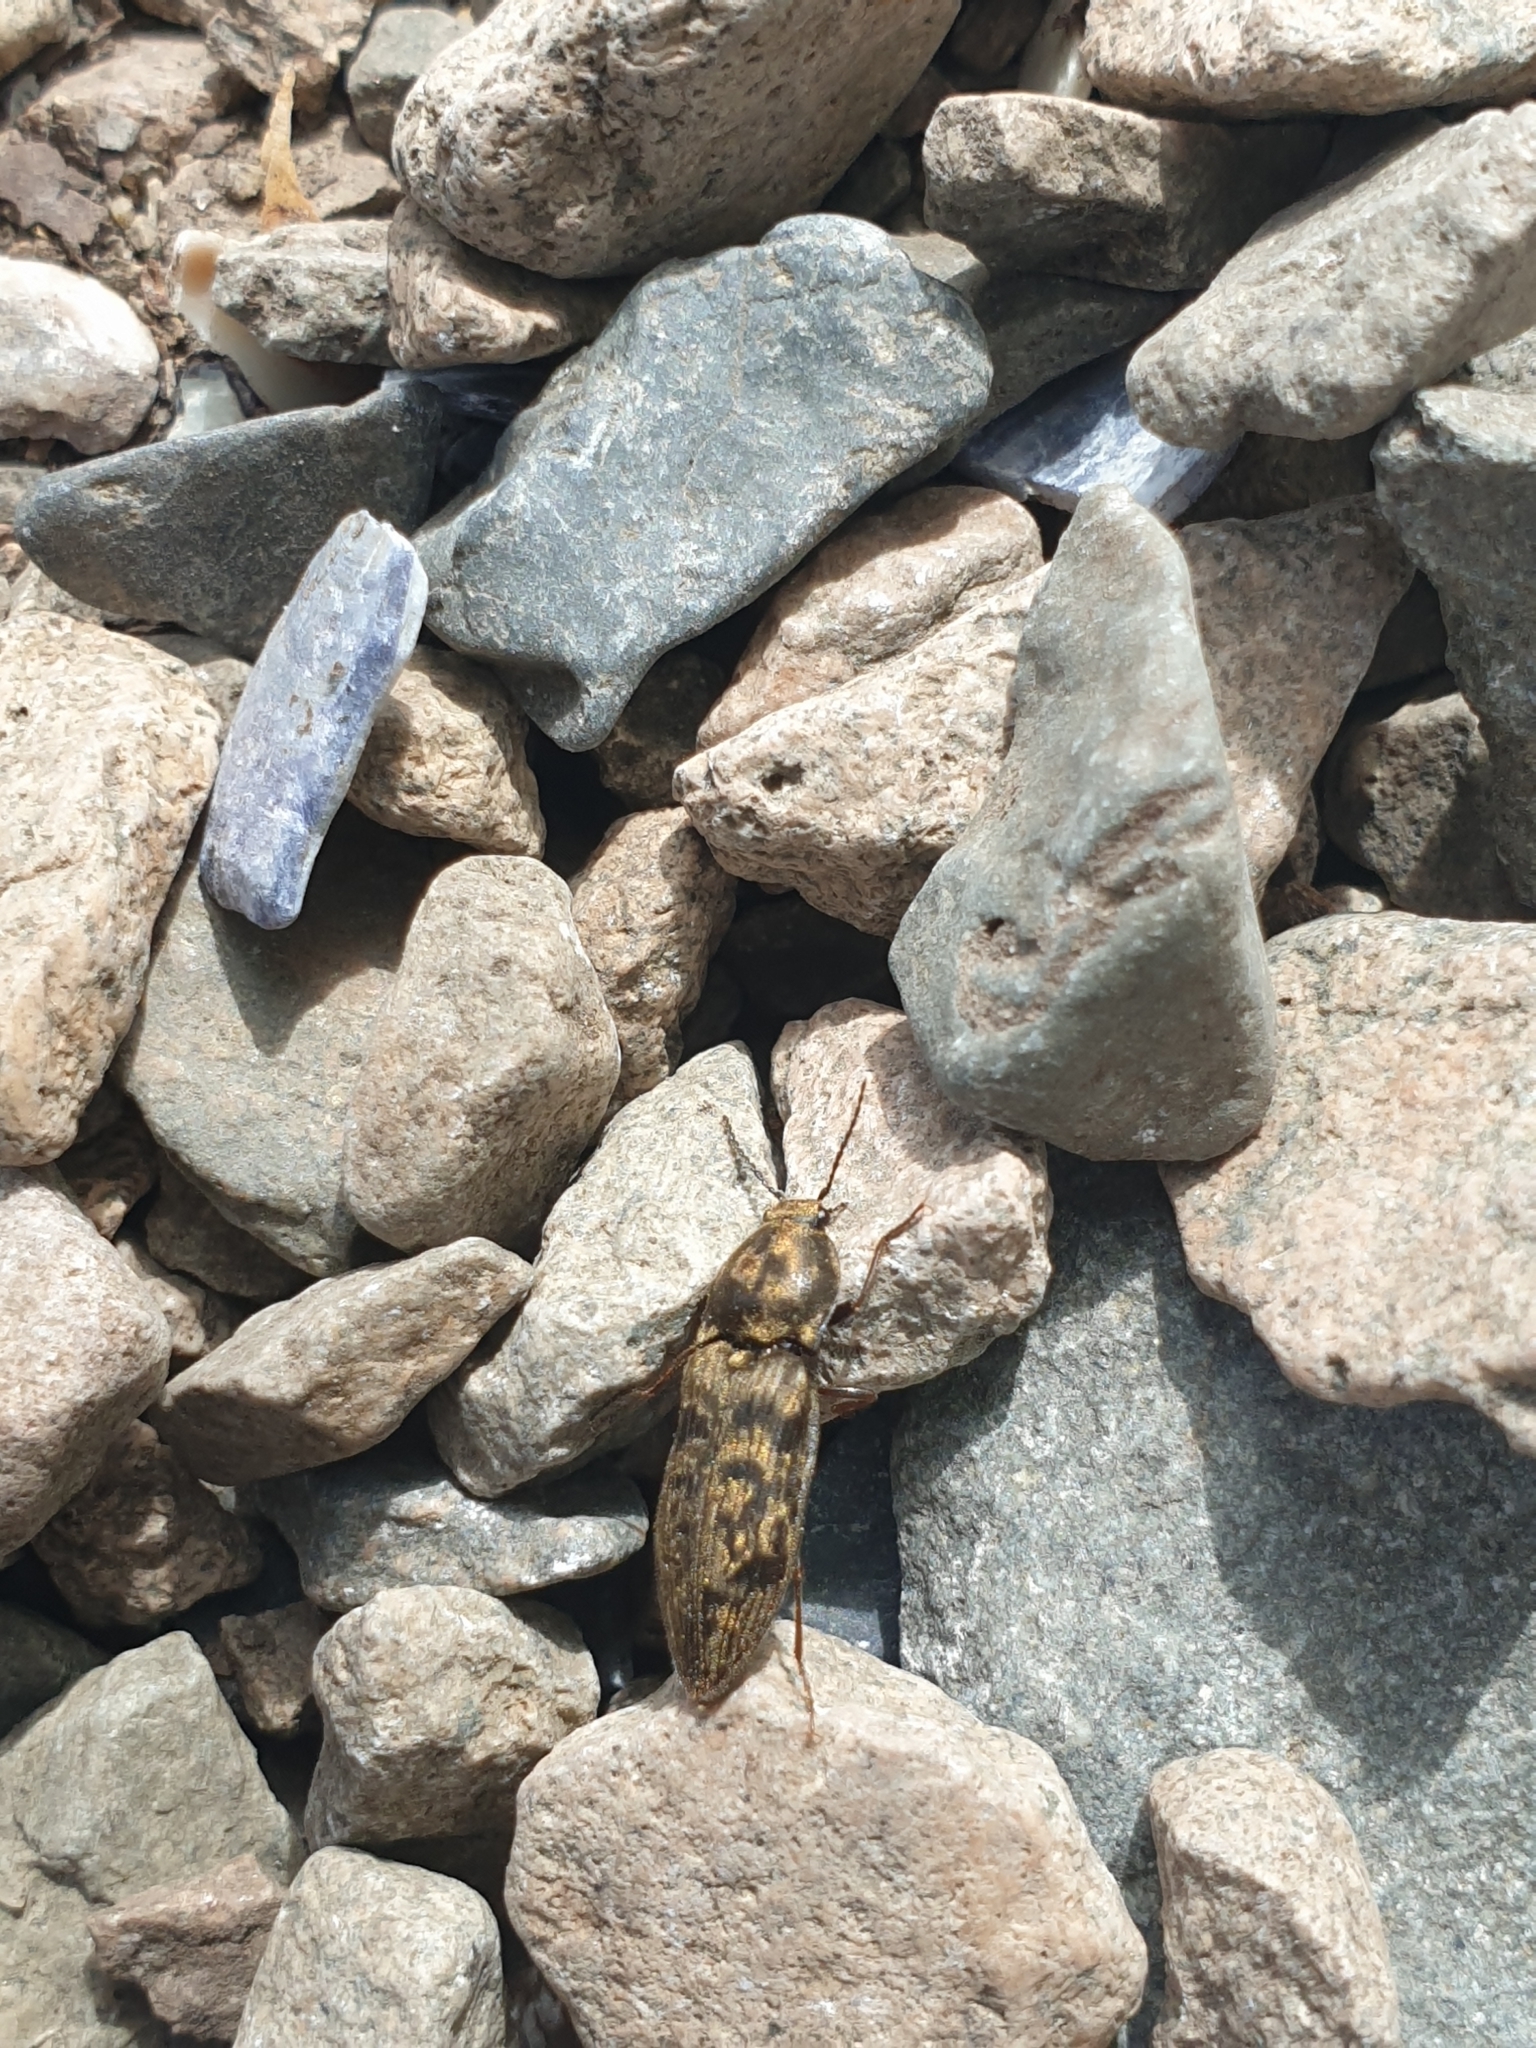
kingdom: Animalia
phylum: Arthropoda
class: Insecta
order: Coleoptera
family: Elateridae
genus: Prosternon
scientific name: Prosternon tessellatum
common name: Chequered click beetle
